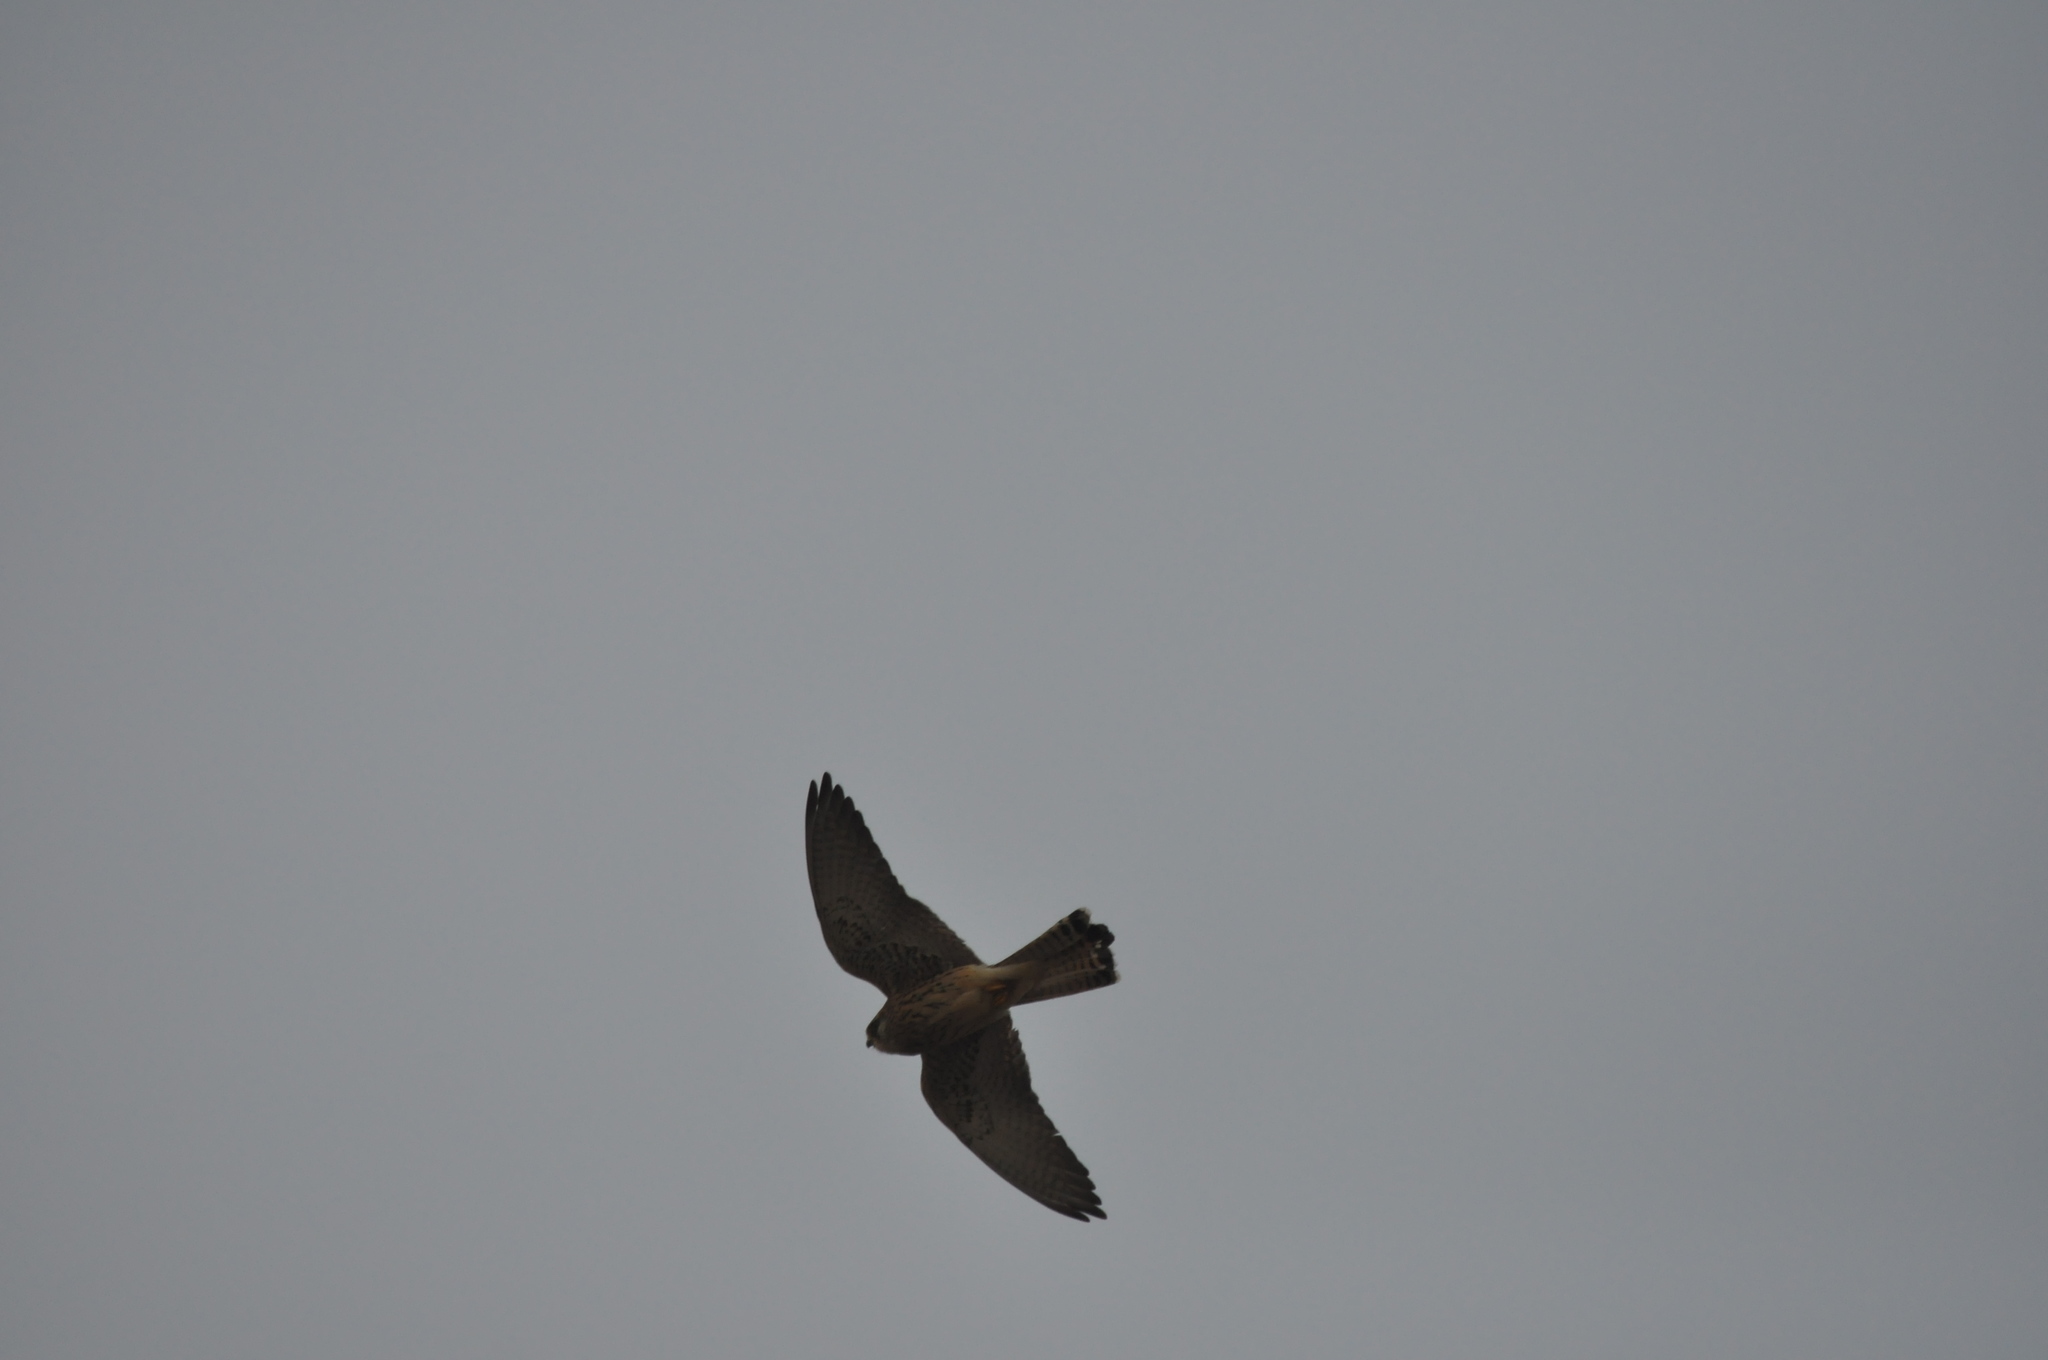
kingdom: Animalia
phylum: Chordata
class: Aves
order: Falconiformes
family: Falconidae
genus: Falco
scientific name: Falco naumanni
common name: Lesser kestrel
